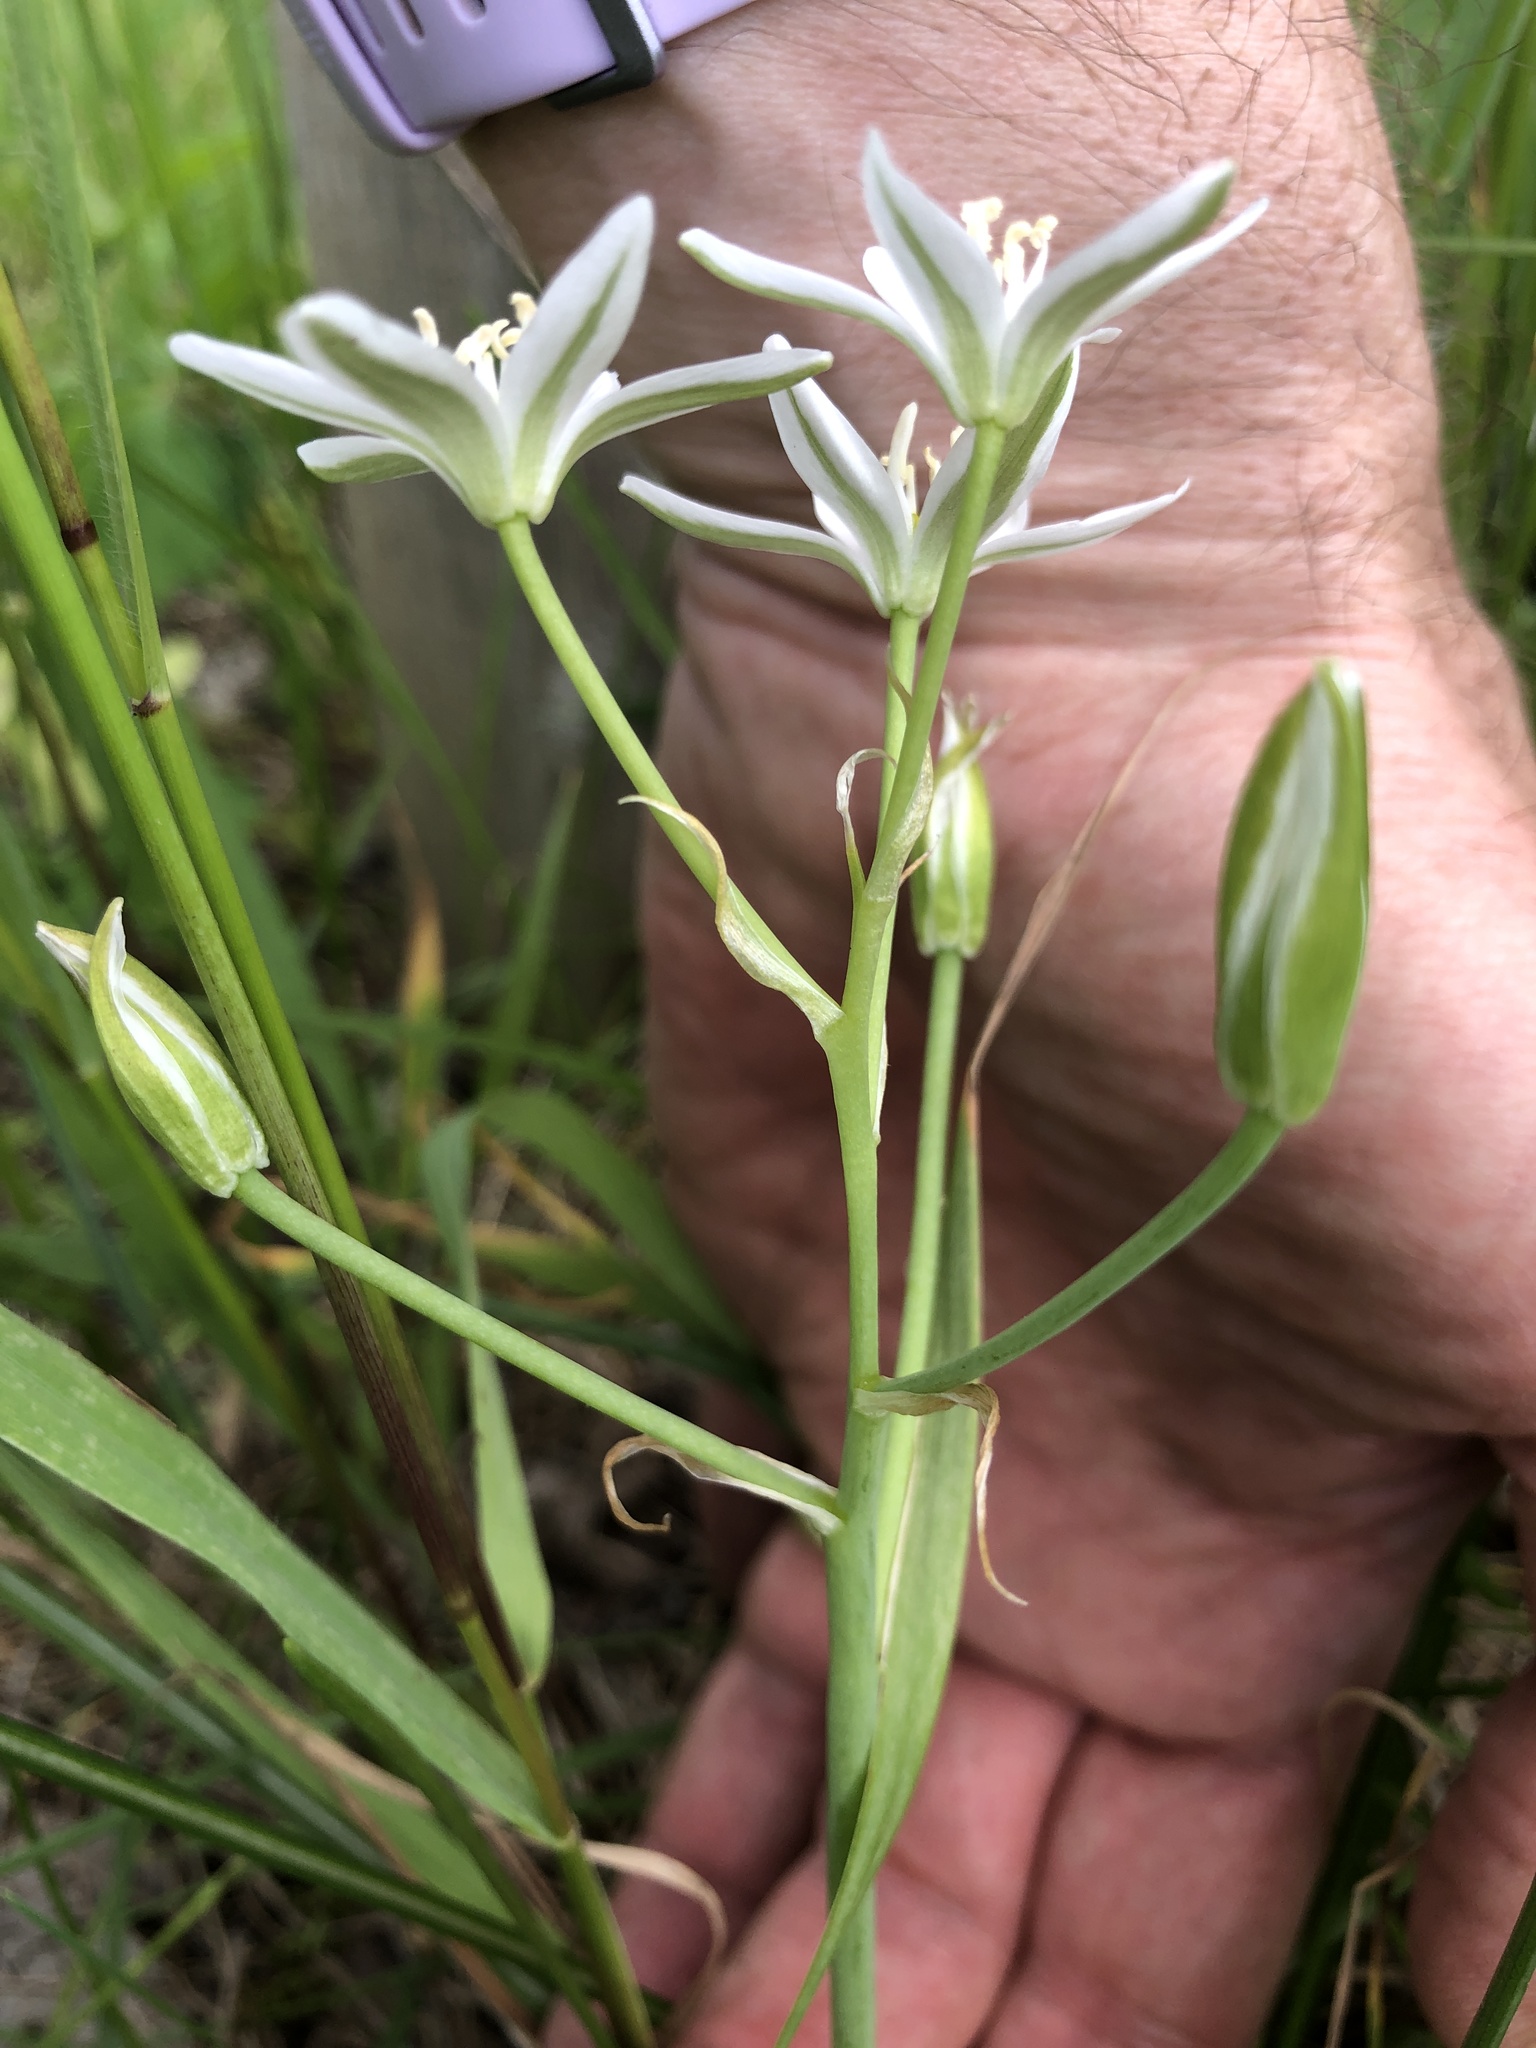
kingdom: Plantae
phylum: Tracheophyta
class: Liliopsida
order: Asparagales
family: Asparagaceae
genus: Ornithogalum
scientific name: Ornithogalum umbellatum
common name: Garden star-of-bethlehem
